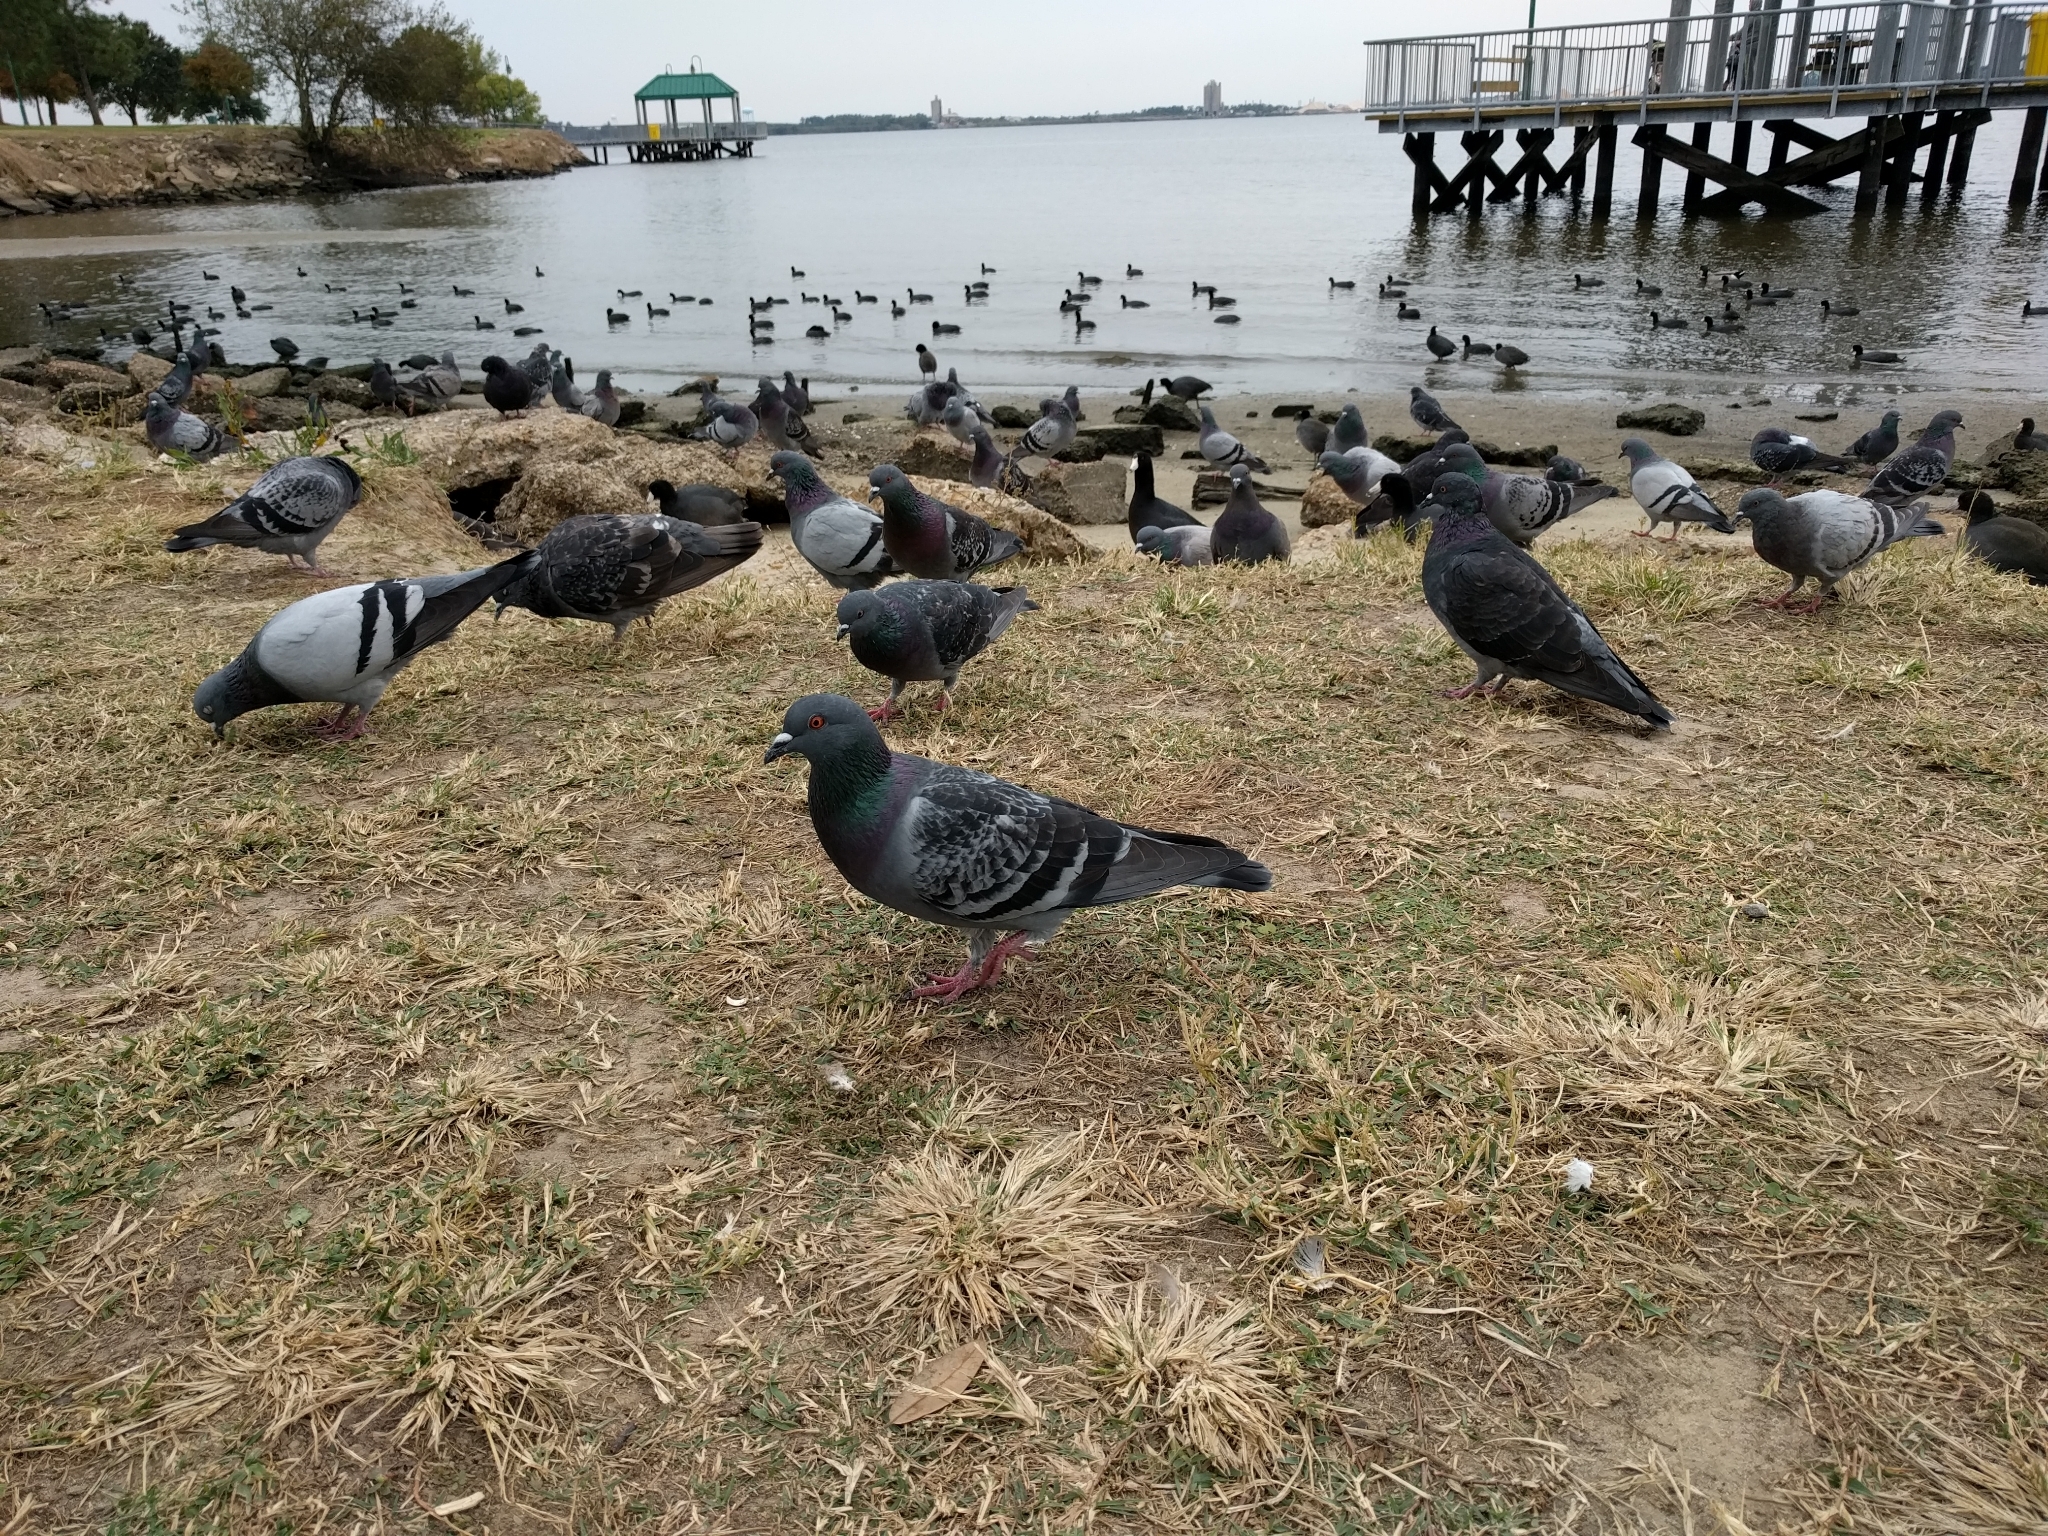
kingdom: Animalia
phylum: Chordata
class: Aves
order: Columbiformes
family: Columbidae
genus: Columba
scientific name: Columba livia
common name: Rock pigeon
